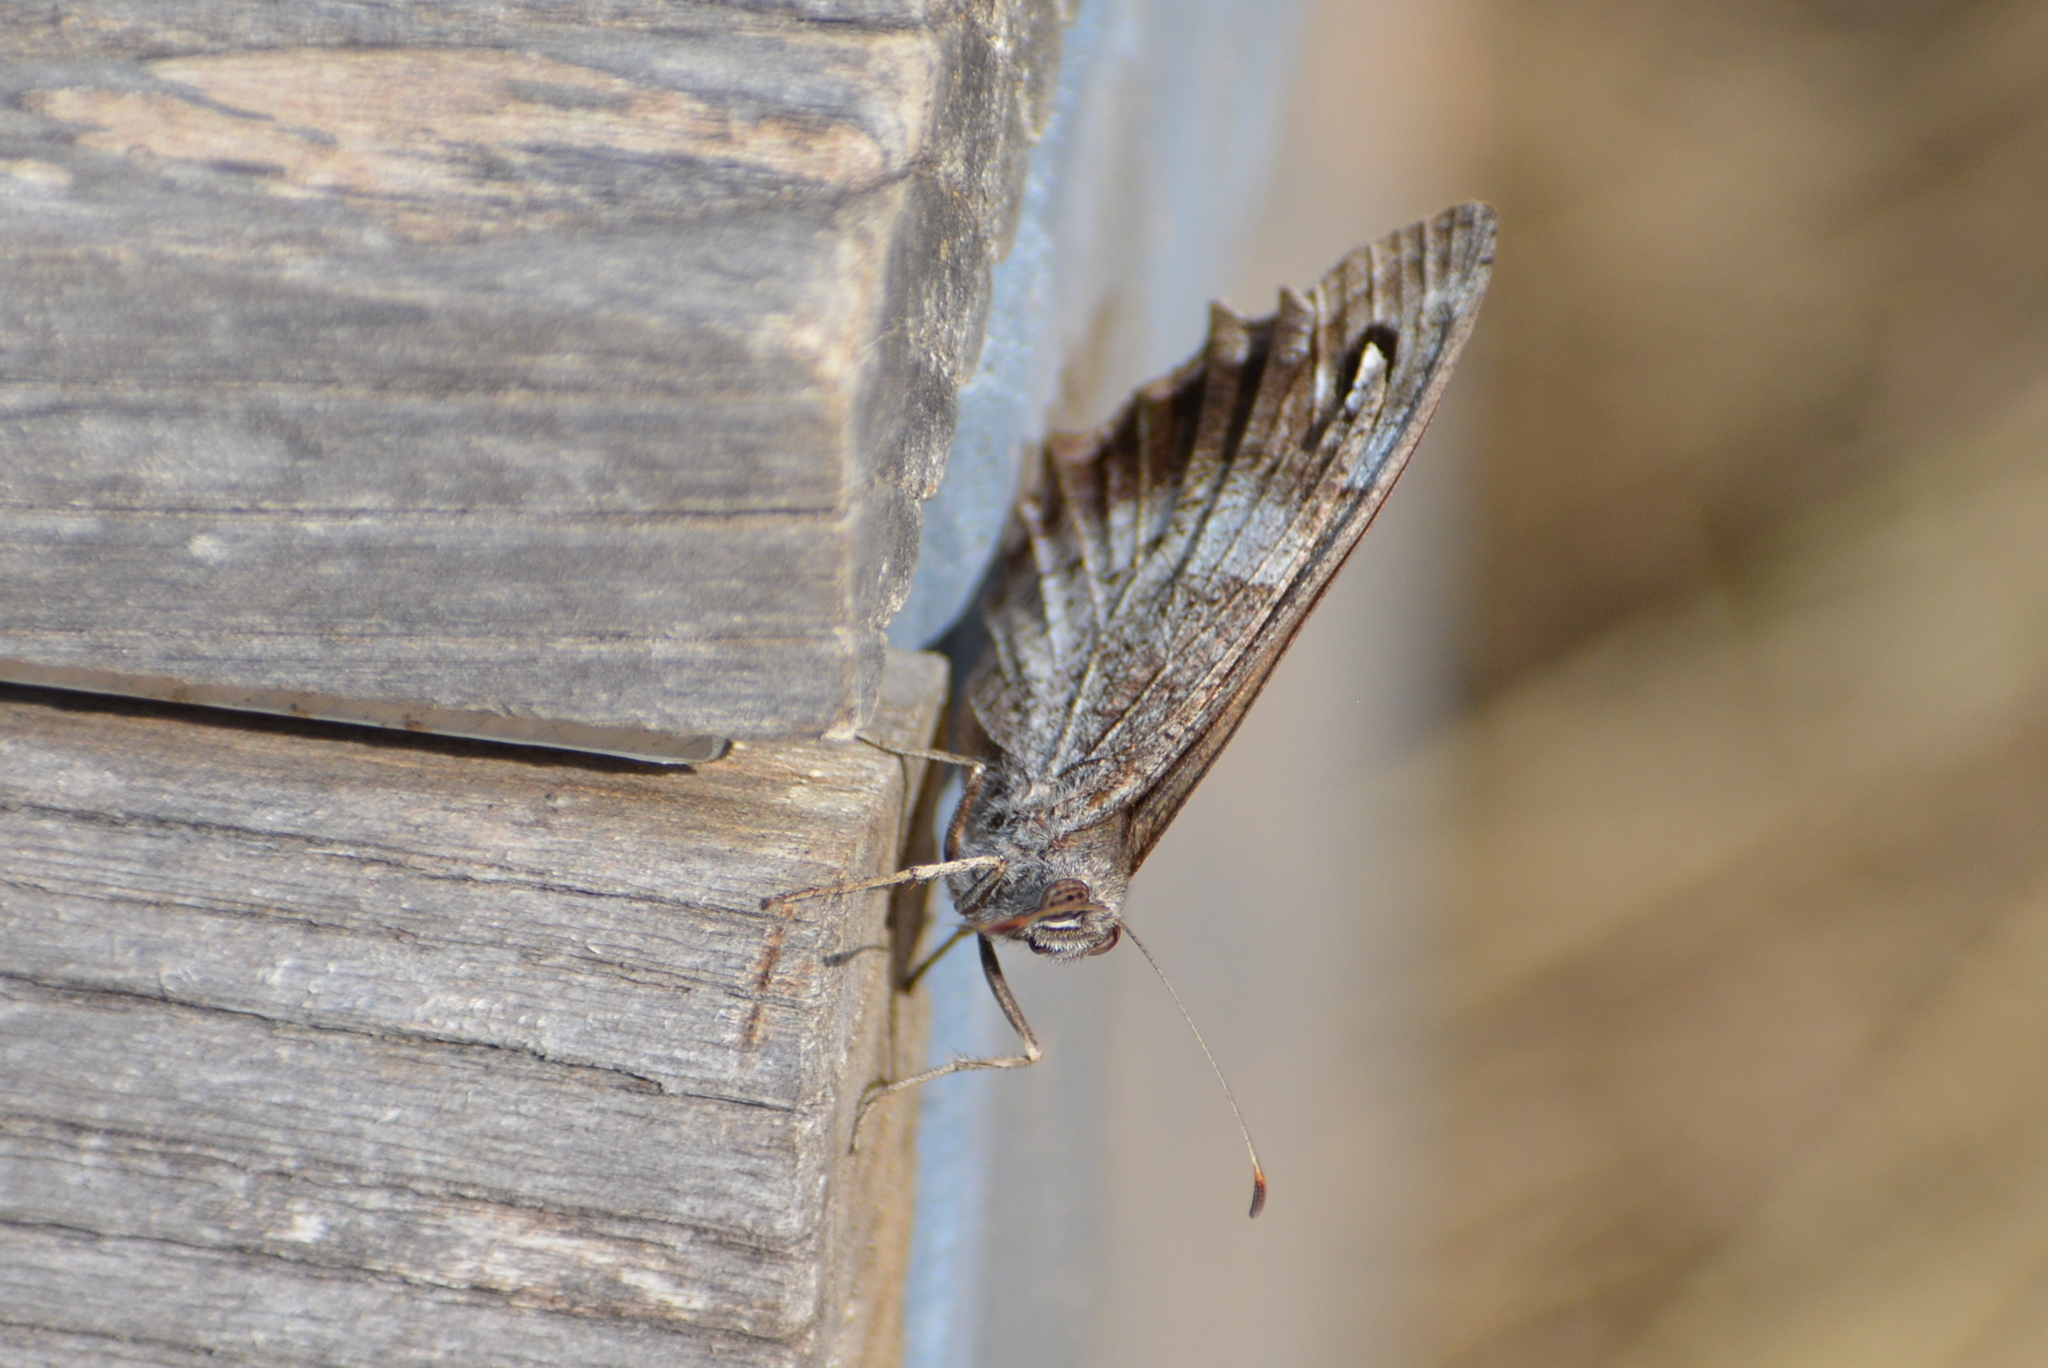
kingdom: Animalia
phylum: Arthropoda
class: Insecta
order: Lepidoptera
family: Nymphalidae
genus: Hipparchia
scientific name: Hipparchia statilinus
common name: Tree grayling
